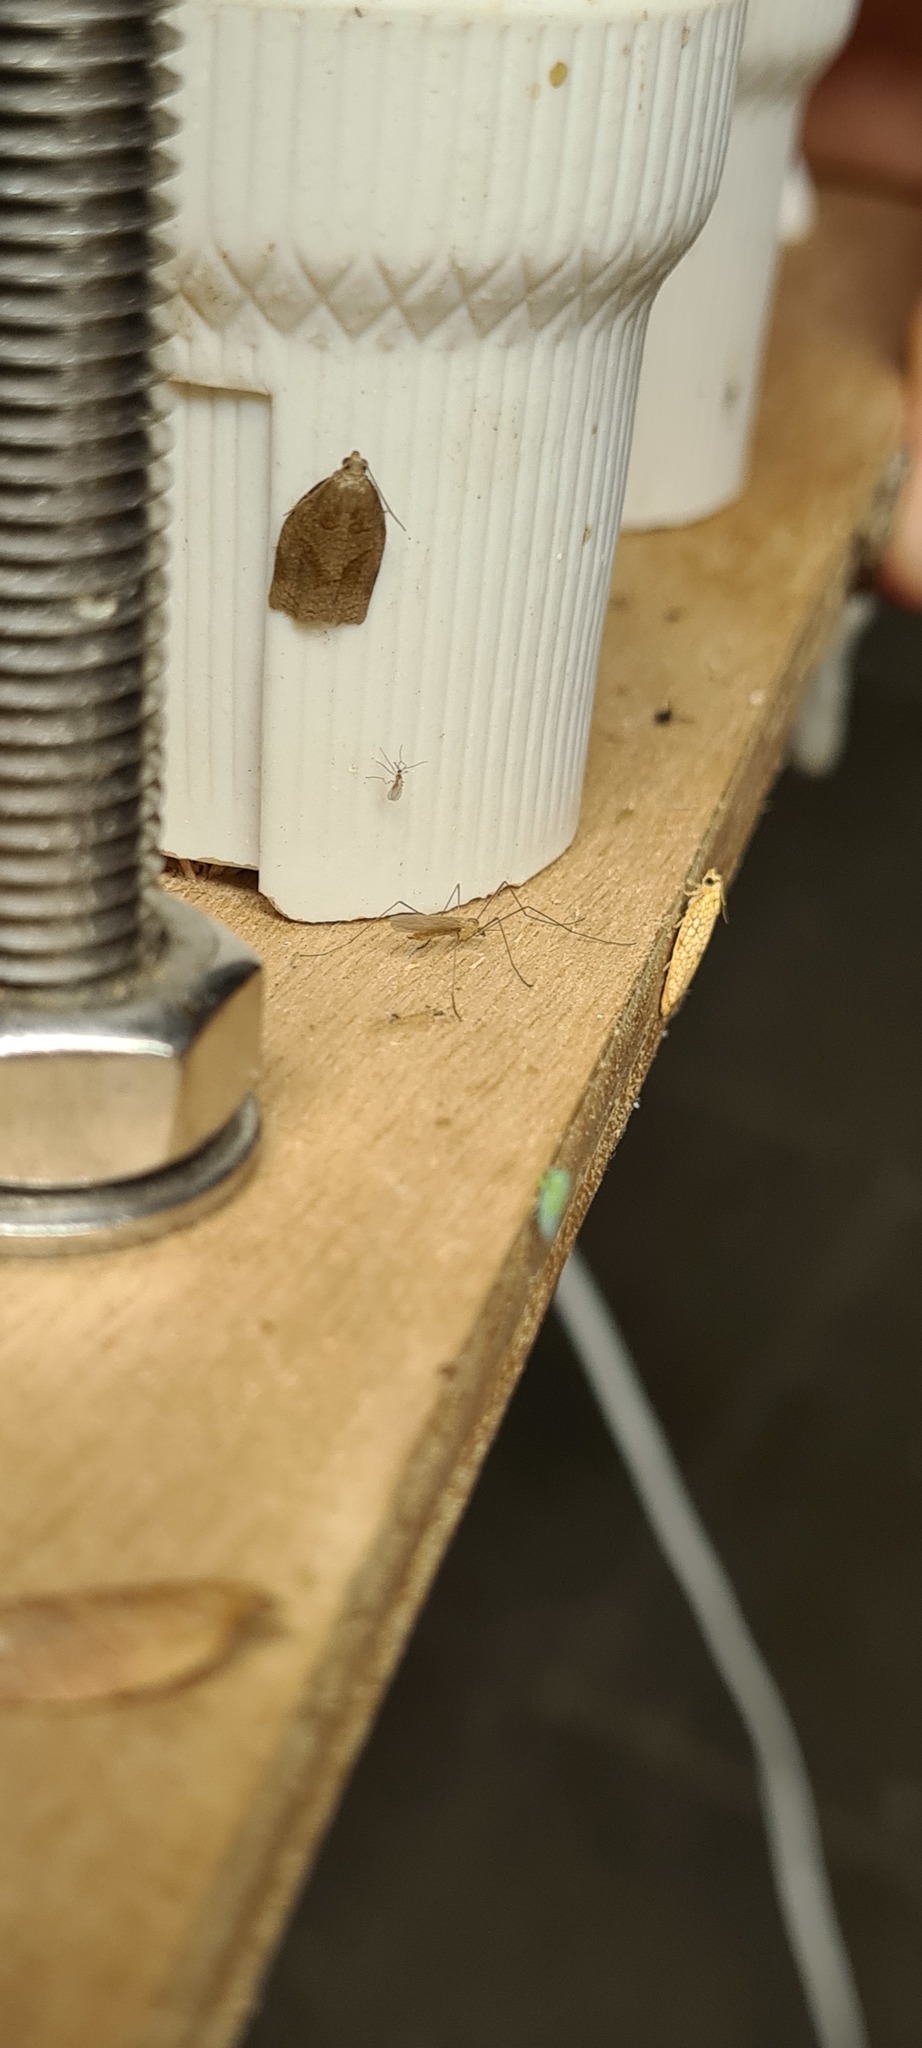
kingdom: Animalia
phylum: Arthropoda
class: Insecta
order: Lepidoptera
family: Tortricidae
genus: Archips
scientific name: Archips rosana
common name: Rose tortrix
